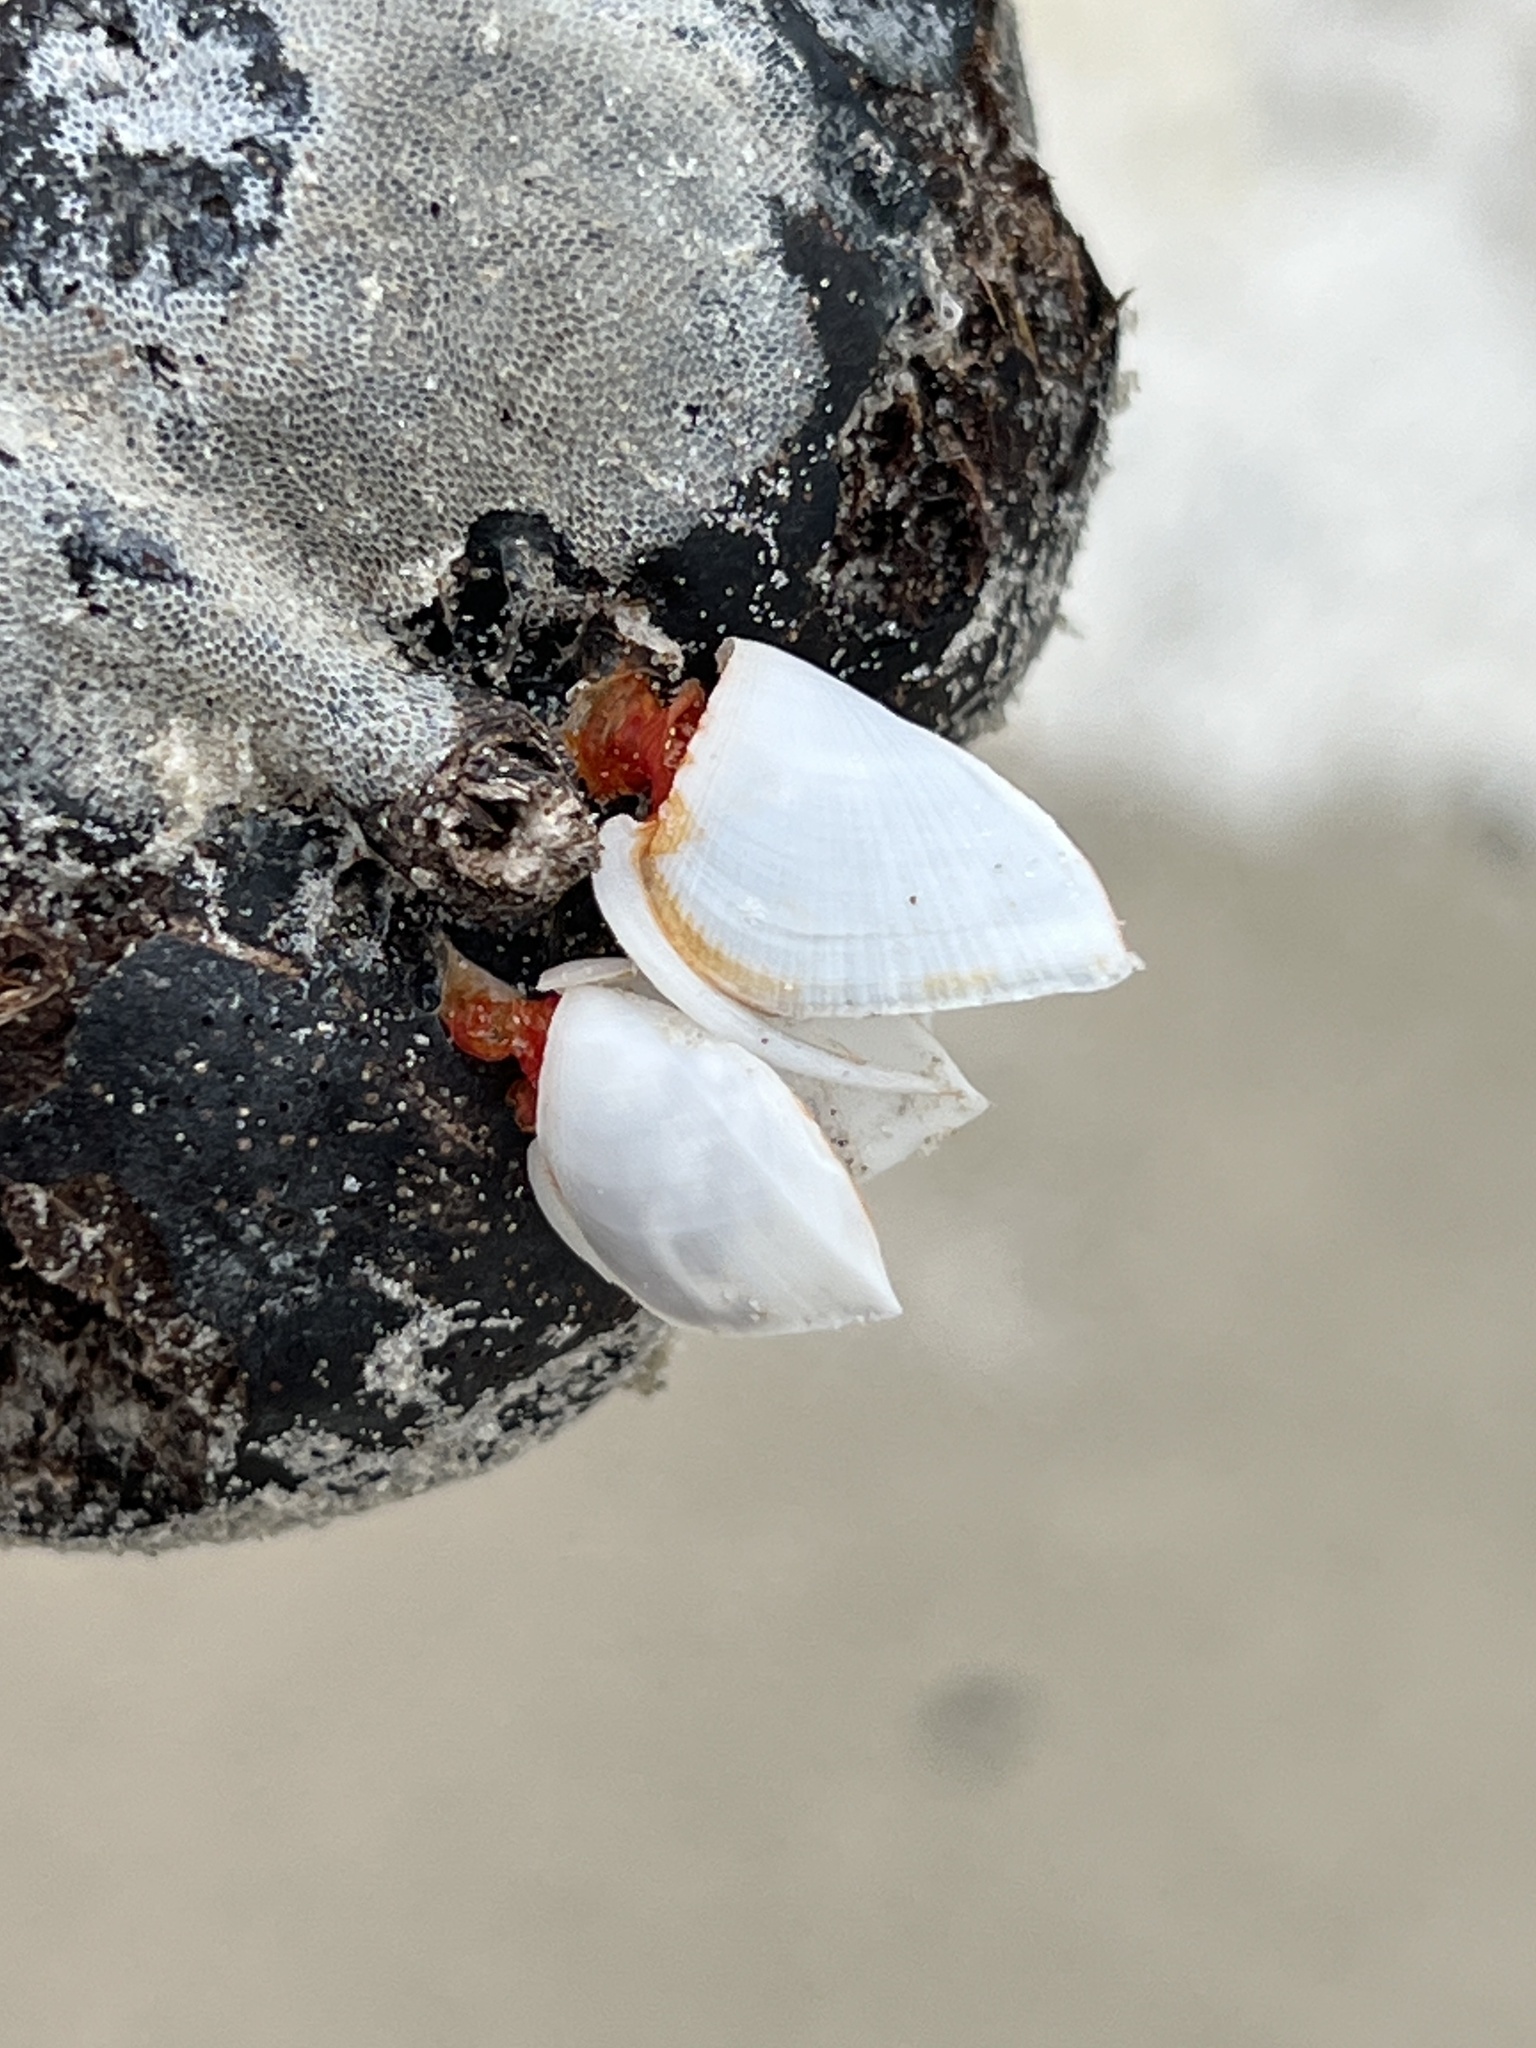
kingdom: Animalia
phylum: Arthropoda
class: Maxillopoda
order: Pedunculata
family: Lepadidae
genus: Lepas
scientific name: Lepas anserifera
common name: Goose barnacle
